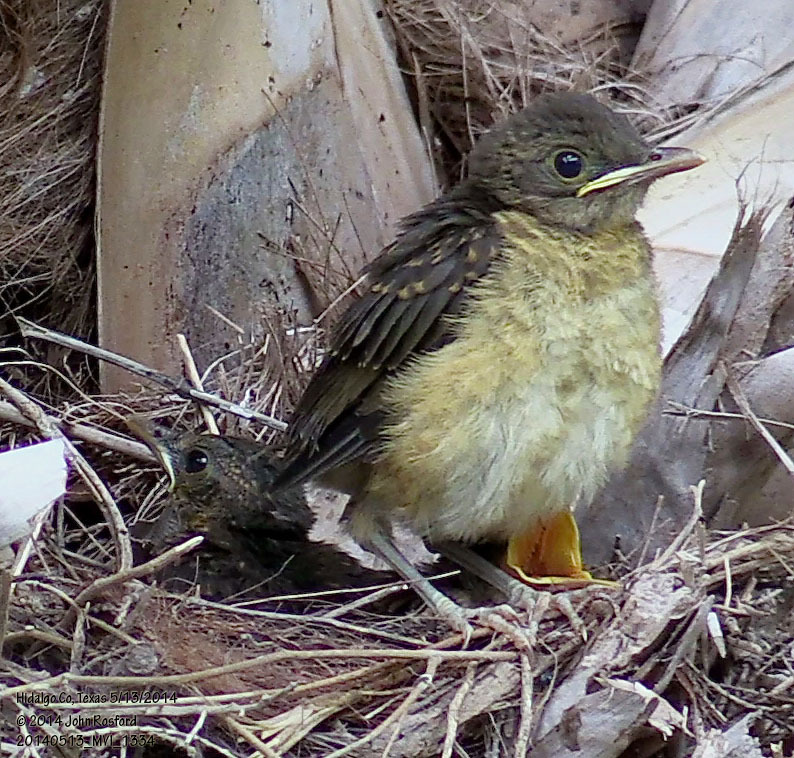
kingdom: Animalia
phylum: Chordata
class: Aves
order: Passeriformes
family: Turdidae
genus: Turdus
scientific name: Turdus grayi
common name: Clay-colored thrush
